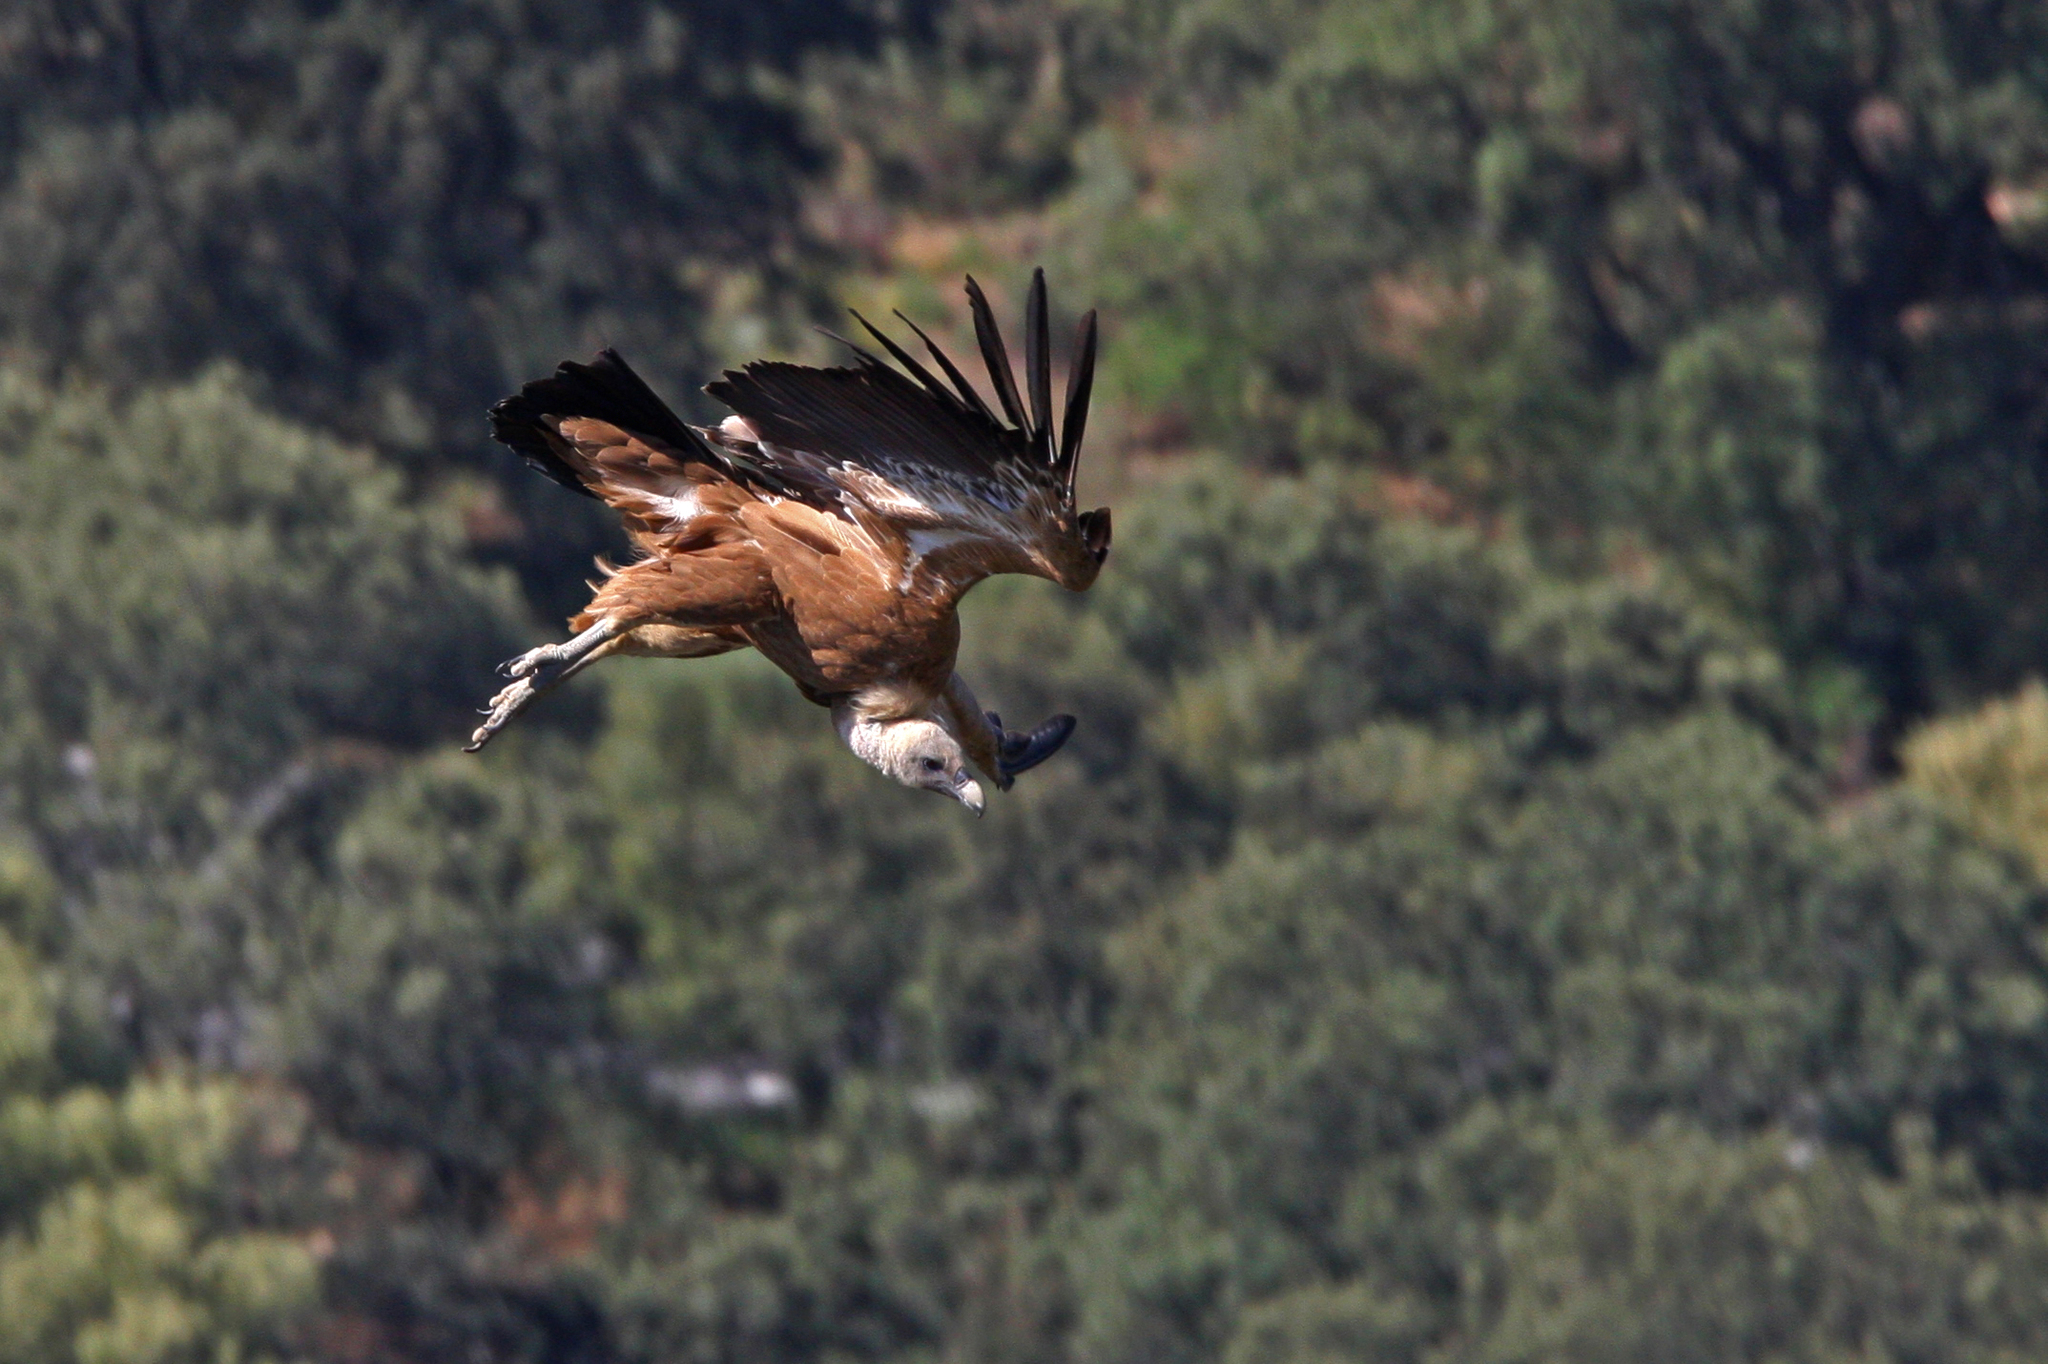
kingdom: Animalia
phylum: Chordata
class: Aves
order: Accipitriformes
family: Accipitridae
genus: Gyps
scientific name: Gyps fulvus
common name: Griffon vulture
